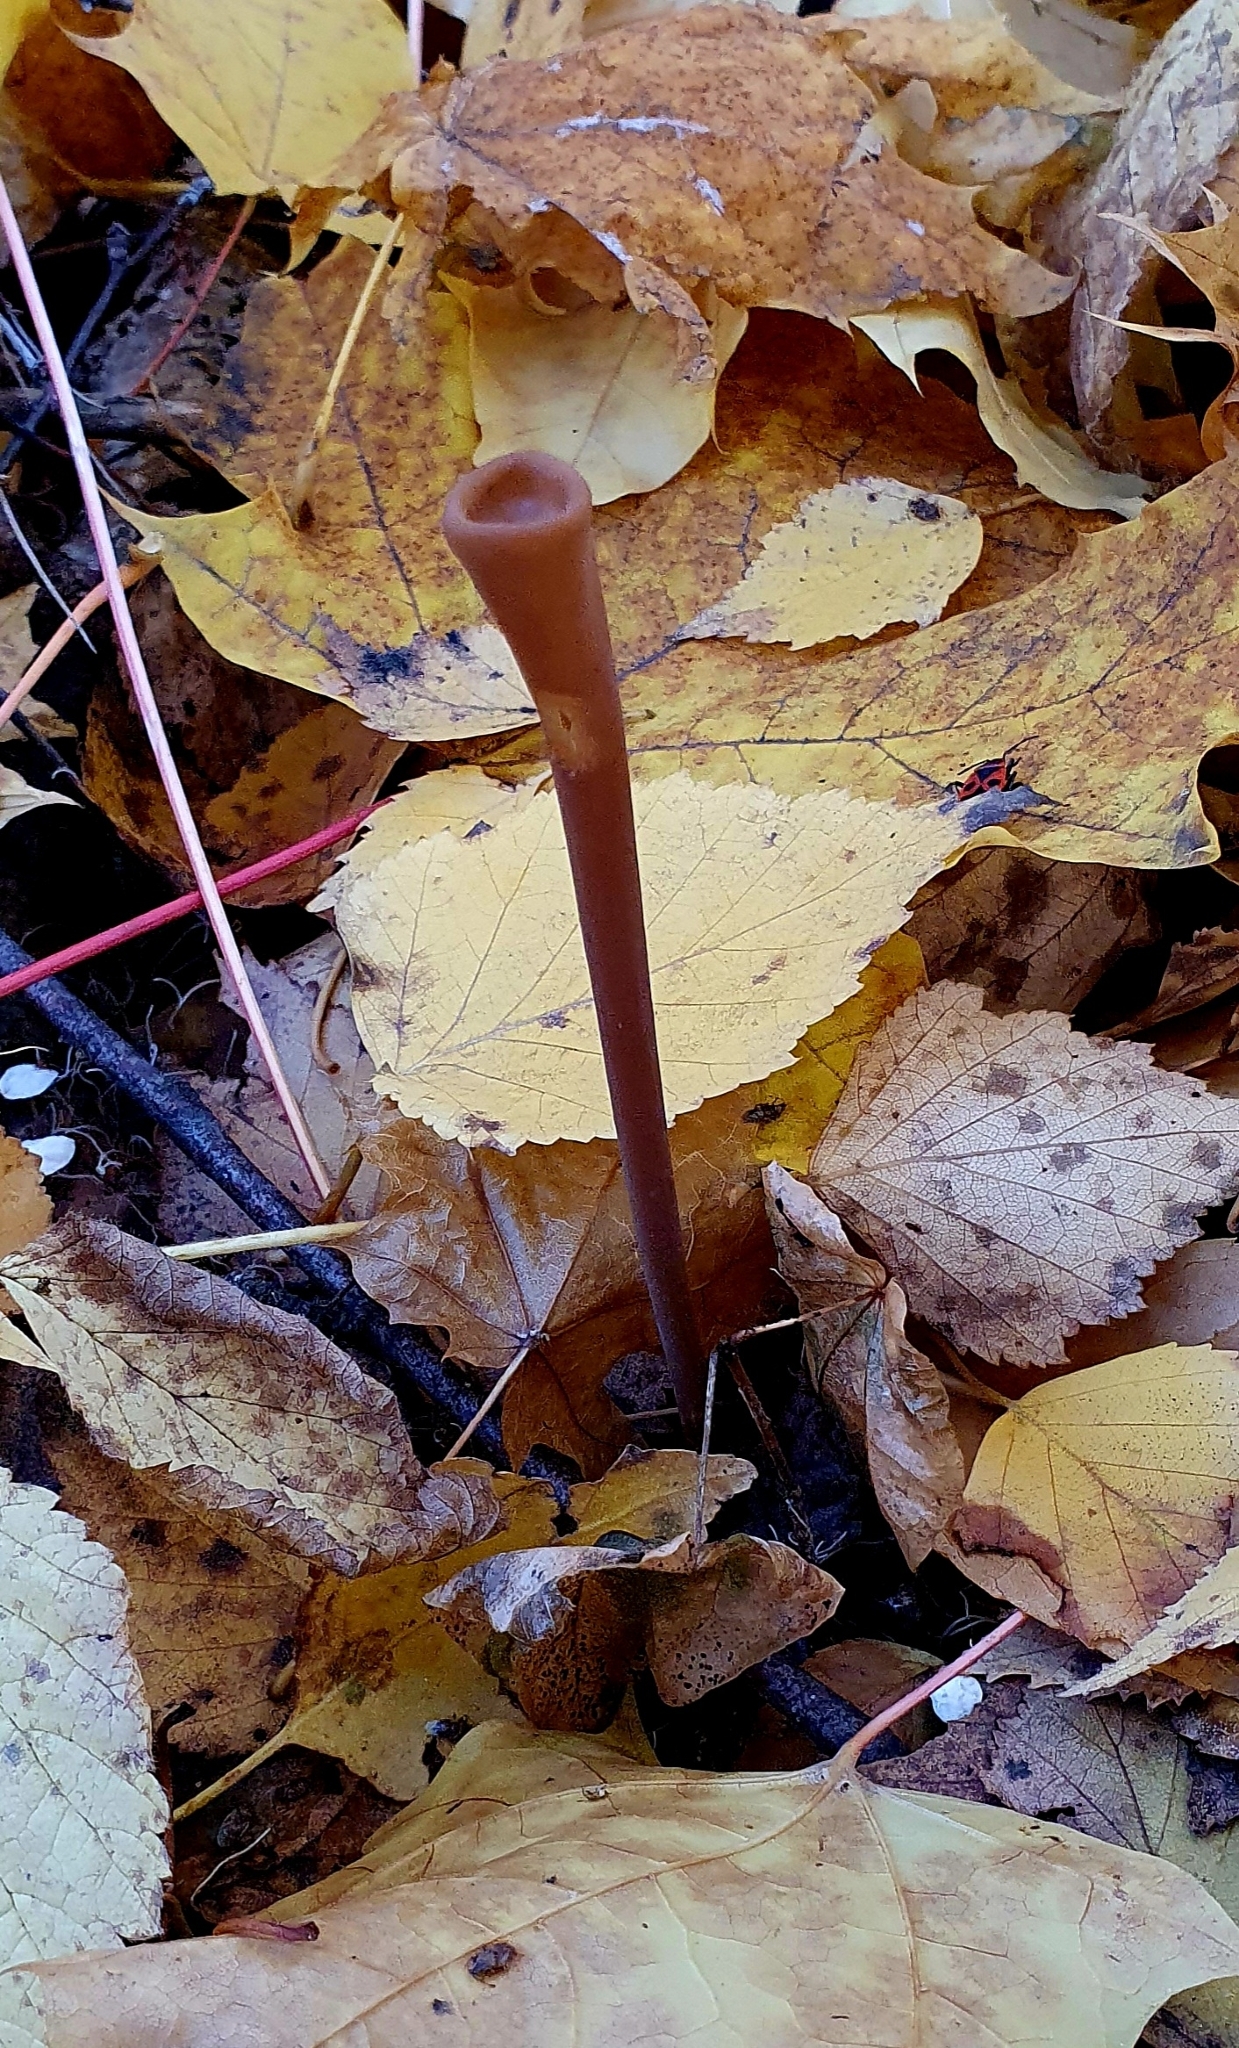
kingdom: Fungi
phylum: Basidiomycota
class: Agaricomycetes
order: Agaricales
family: Typhulaceae
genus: Typhula
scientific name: Typhula fistulosa
